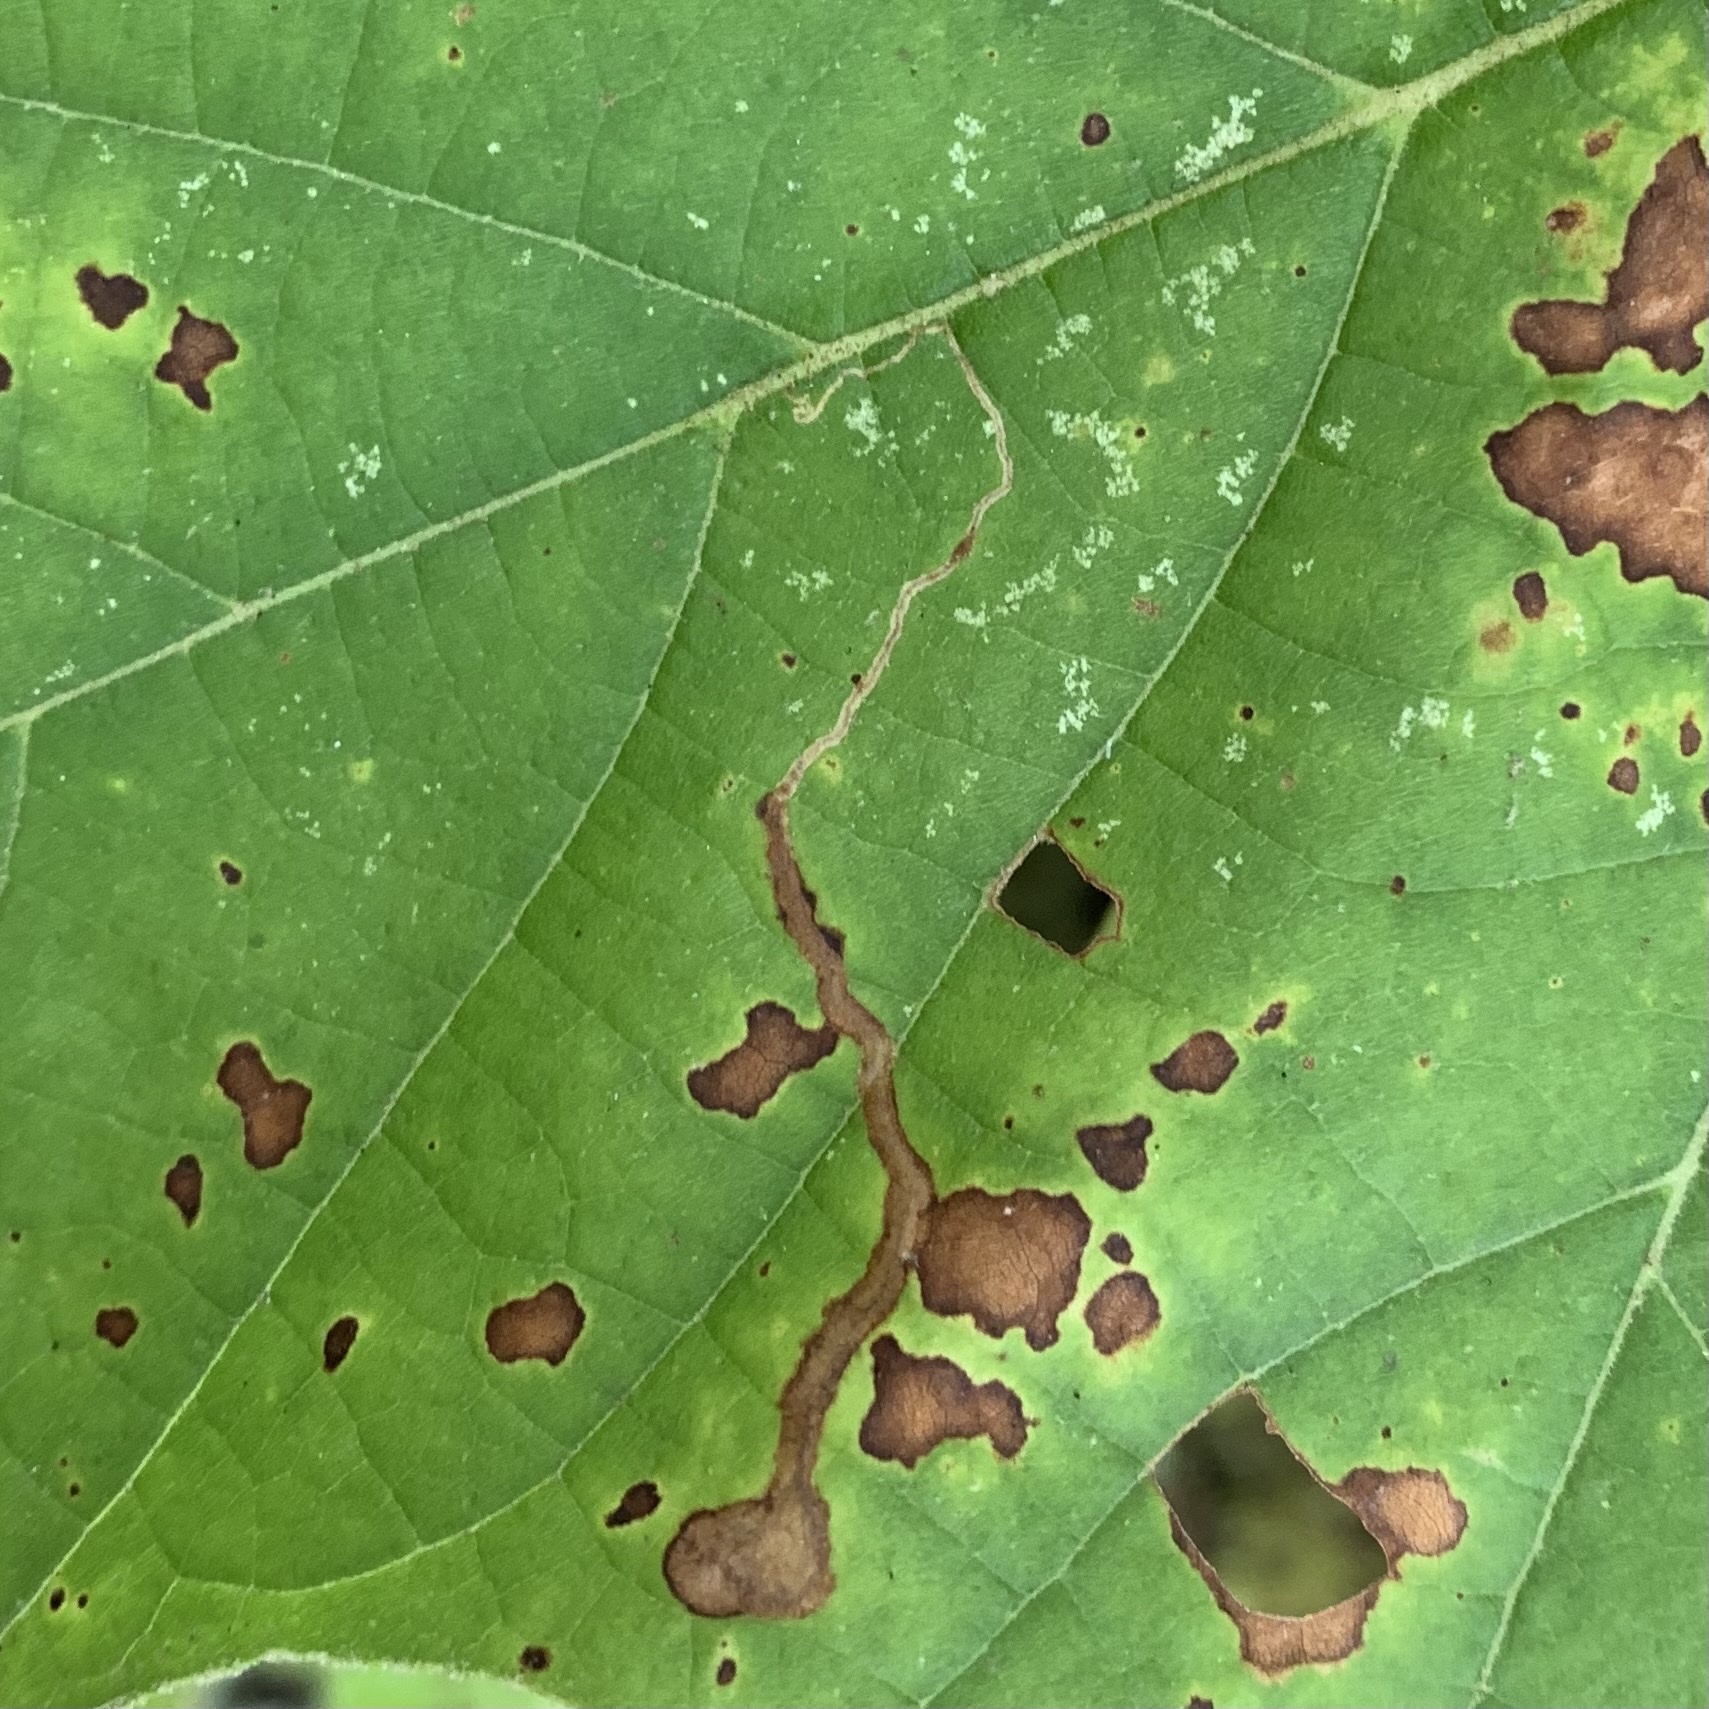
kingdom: Animalia
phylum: Arthropoda
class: Insecta
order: Lepidoptera
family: Nepticulidae
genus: Ectoedemia
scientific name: Ectoedemia clemensella
